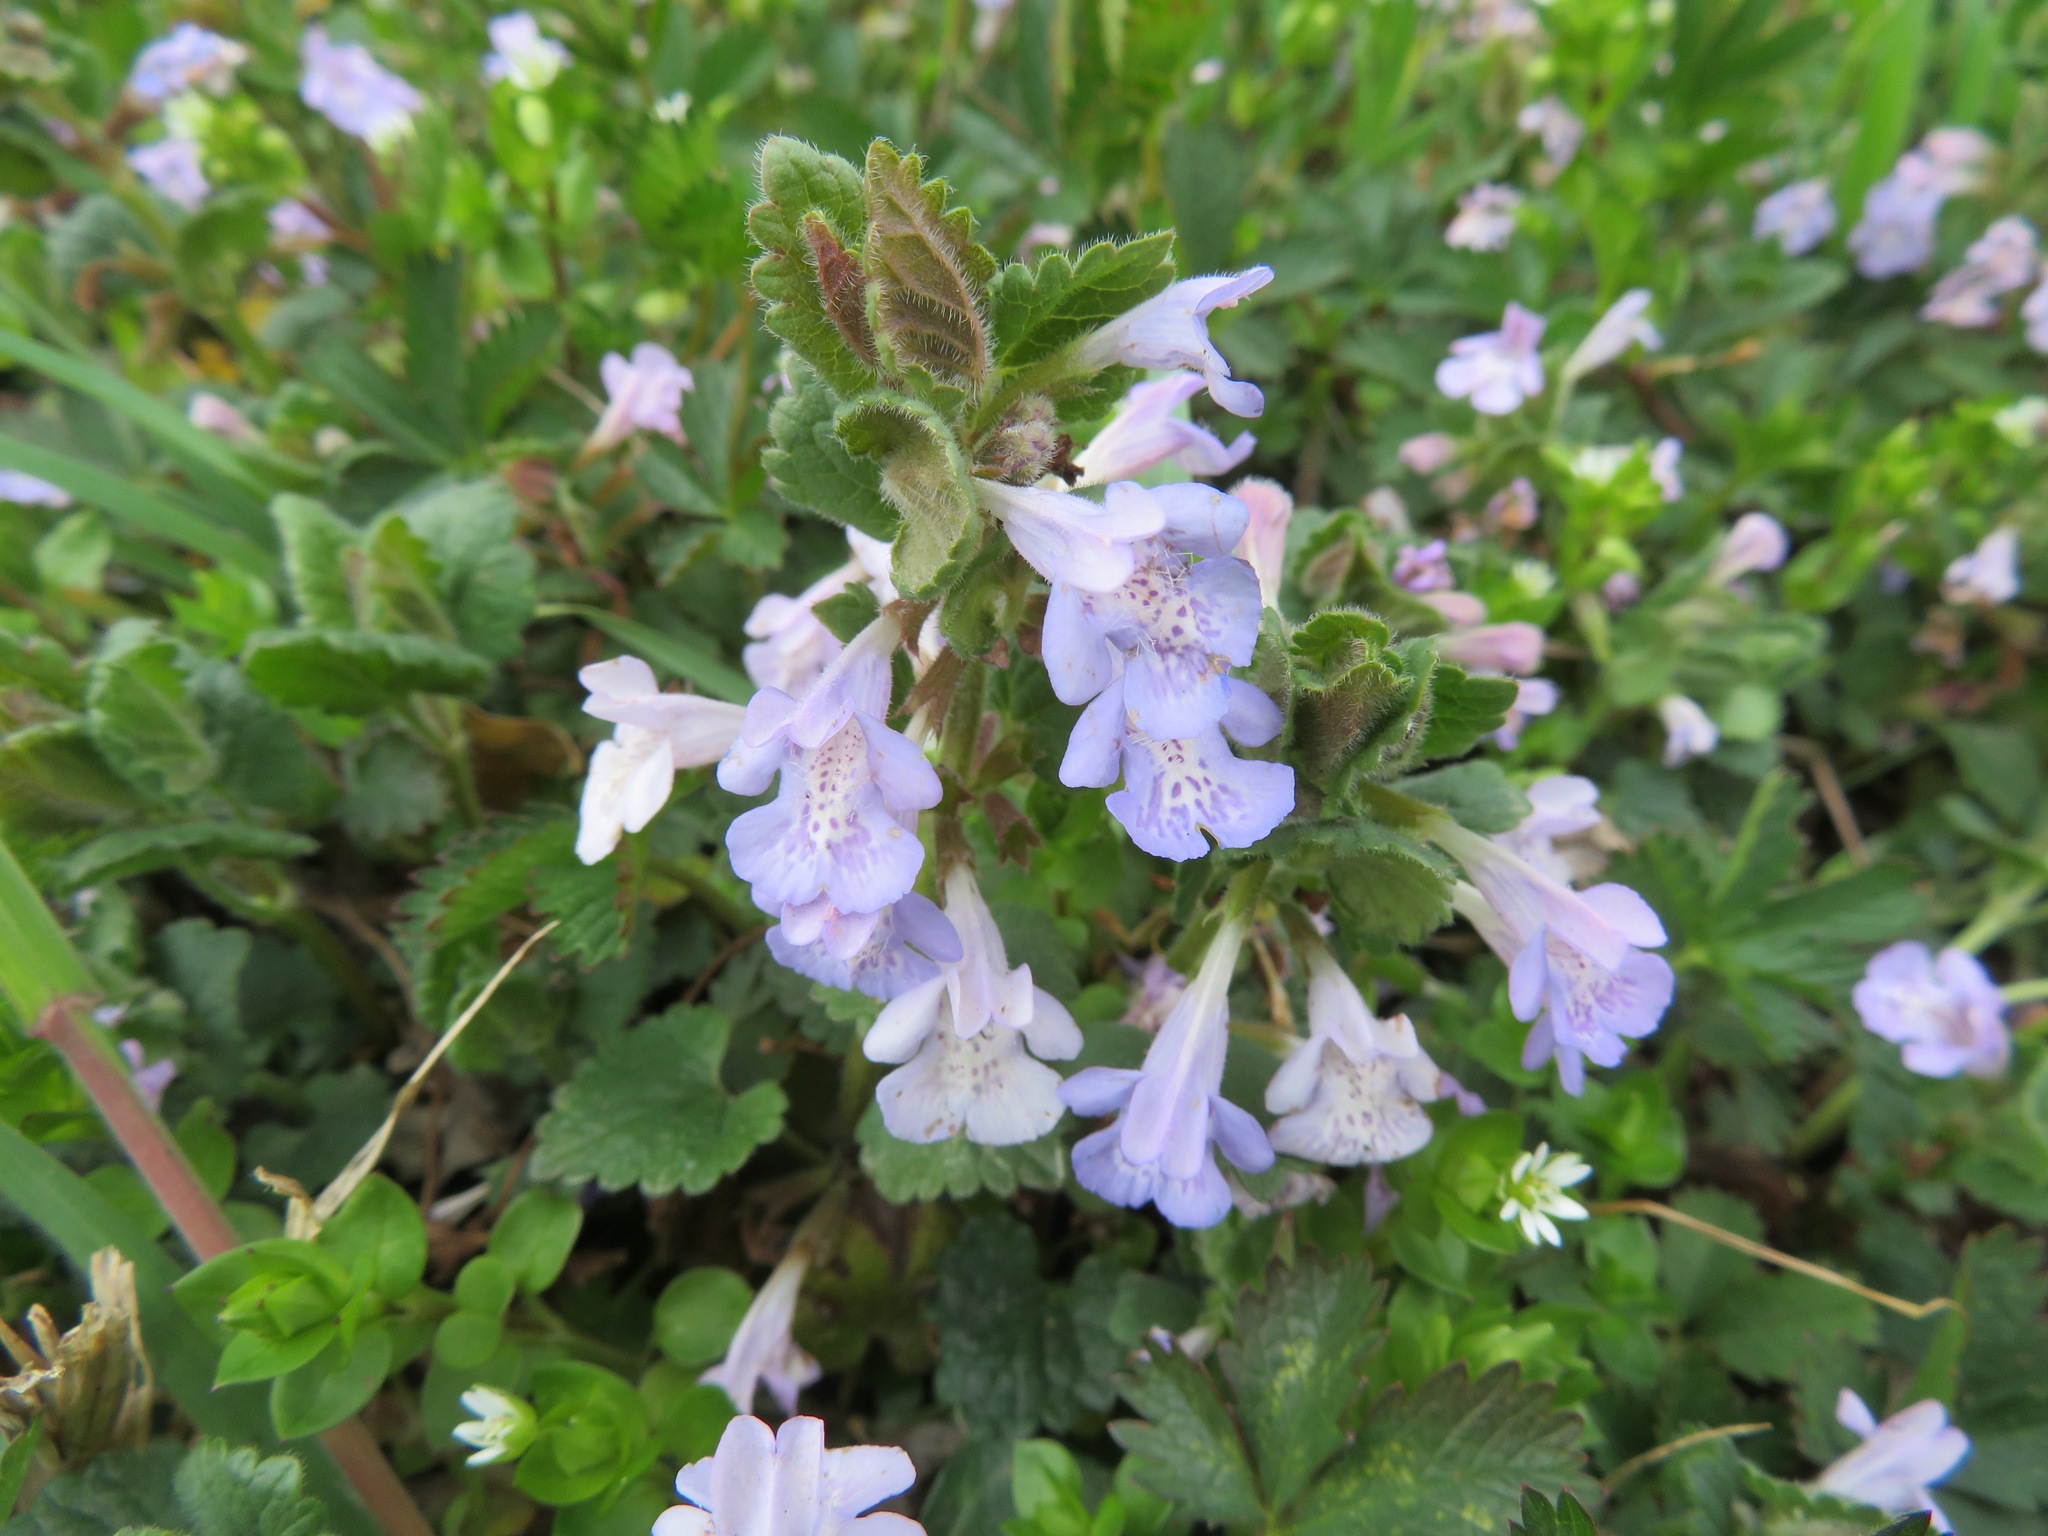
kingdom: Plantae
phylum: Tracheophyta
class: Magnoliopsida
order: Lamiales
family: Lamiaceae
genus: Glechoma
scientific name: Glechoma hederacea
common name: Ground ivy
